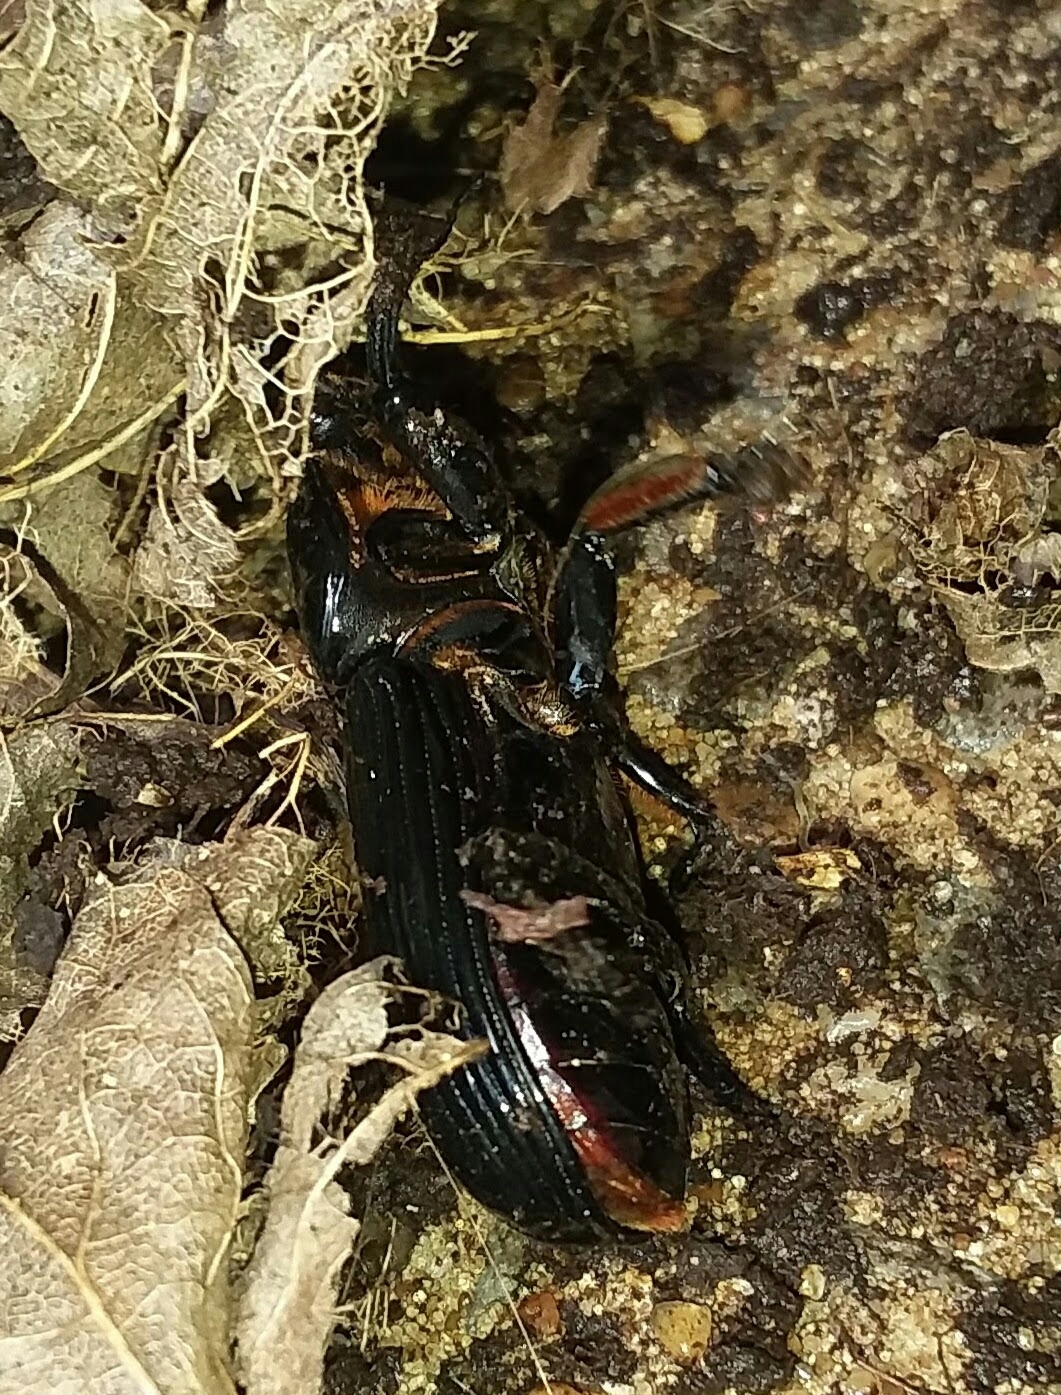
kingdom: Animalia
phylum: Arthropoda
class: Insecta
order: Coleoptera
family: Passalidae
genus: Odontotaenius
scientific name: Odontotaenius disjunctus
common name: Patent leather beetle
